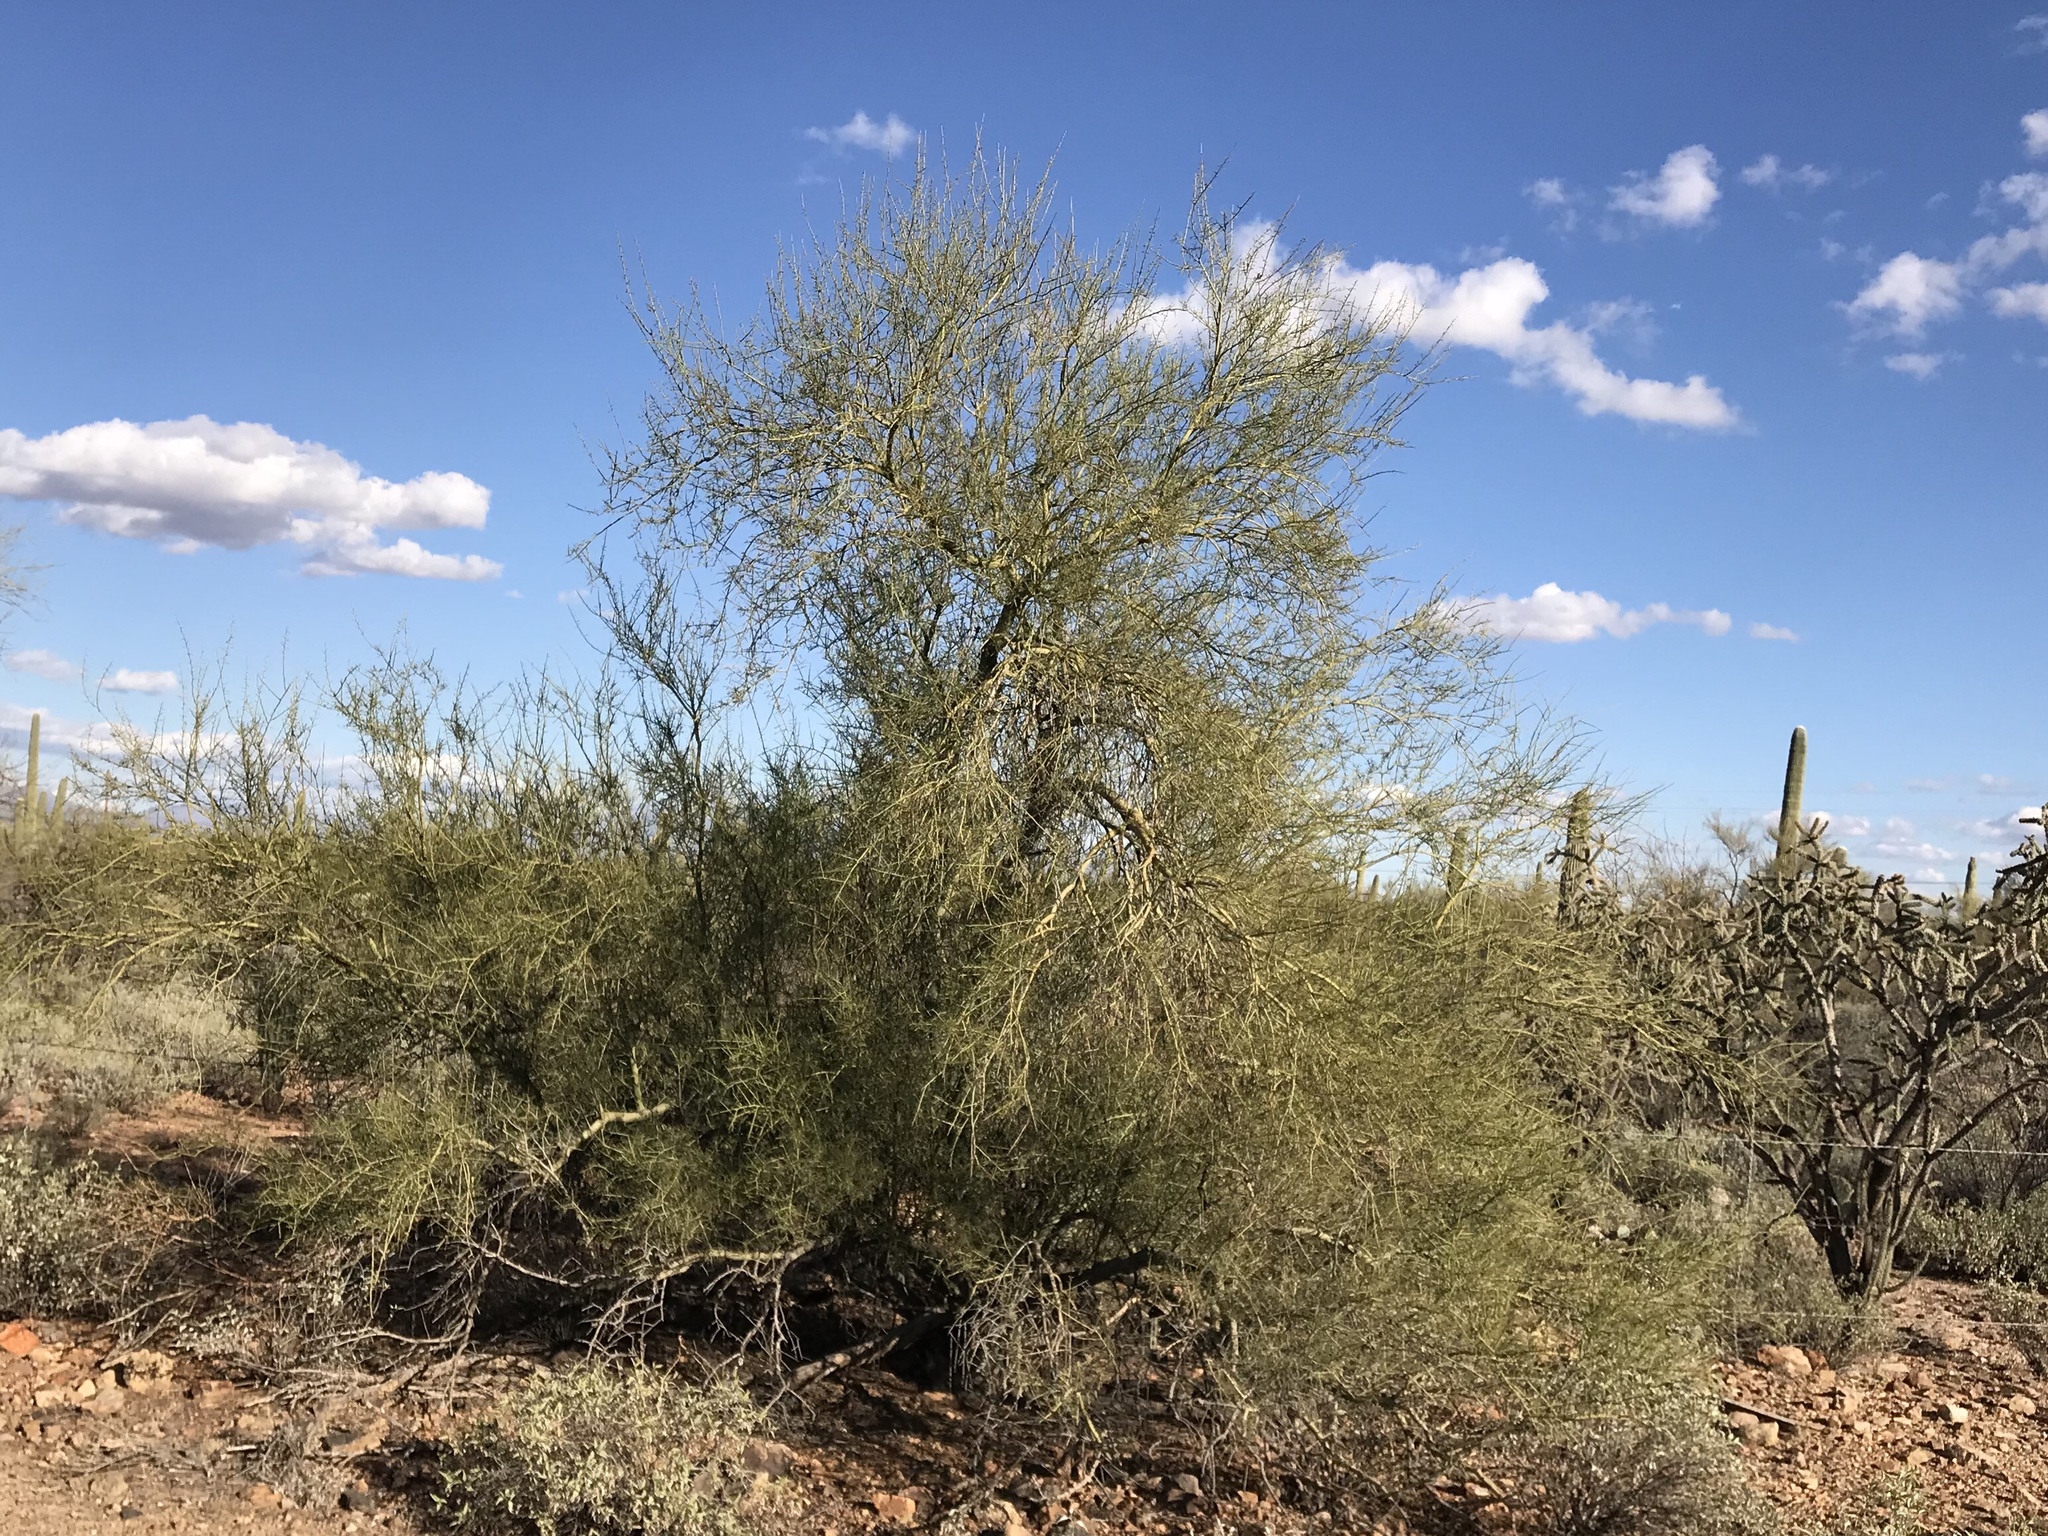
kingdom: Plantae
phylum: Tracheophyta
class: Magnoliopsida
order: Fabales
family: Fabaceae
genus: Parkinsonia
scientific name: Parkinsonia microphylla
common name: Yellow paloverde
